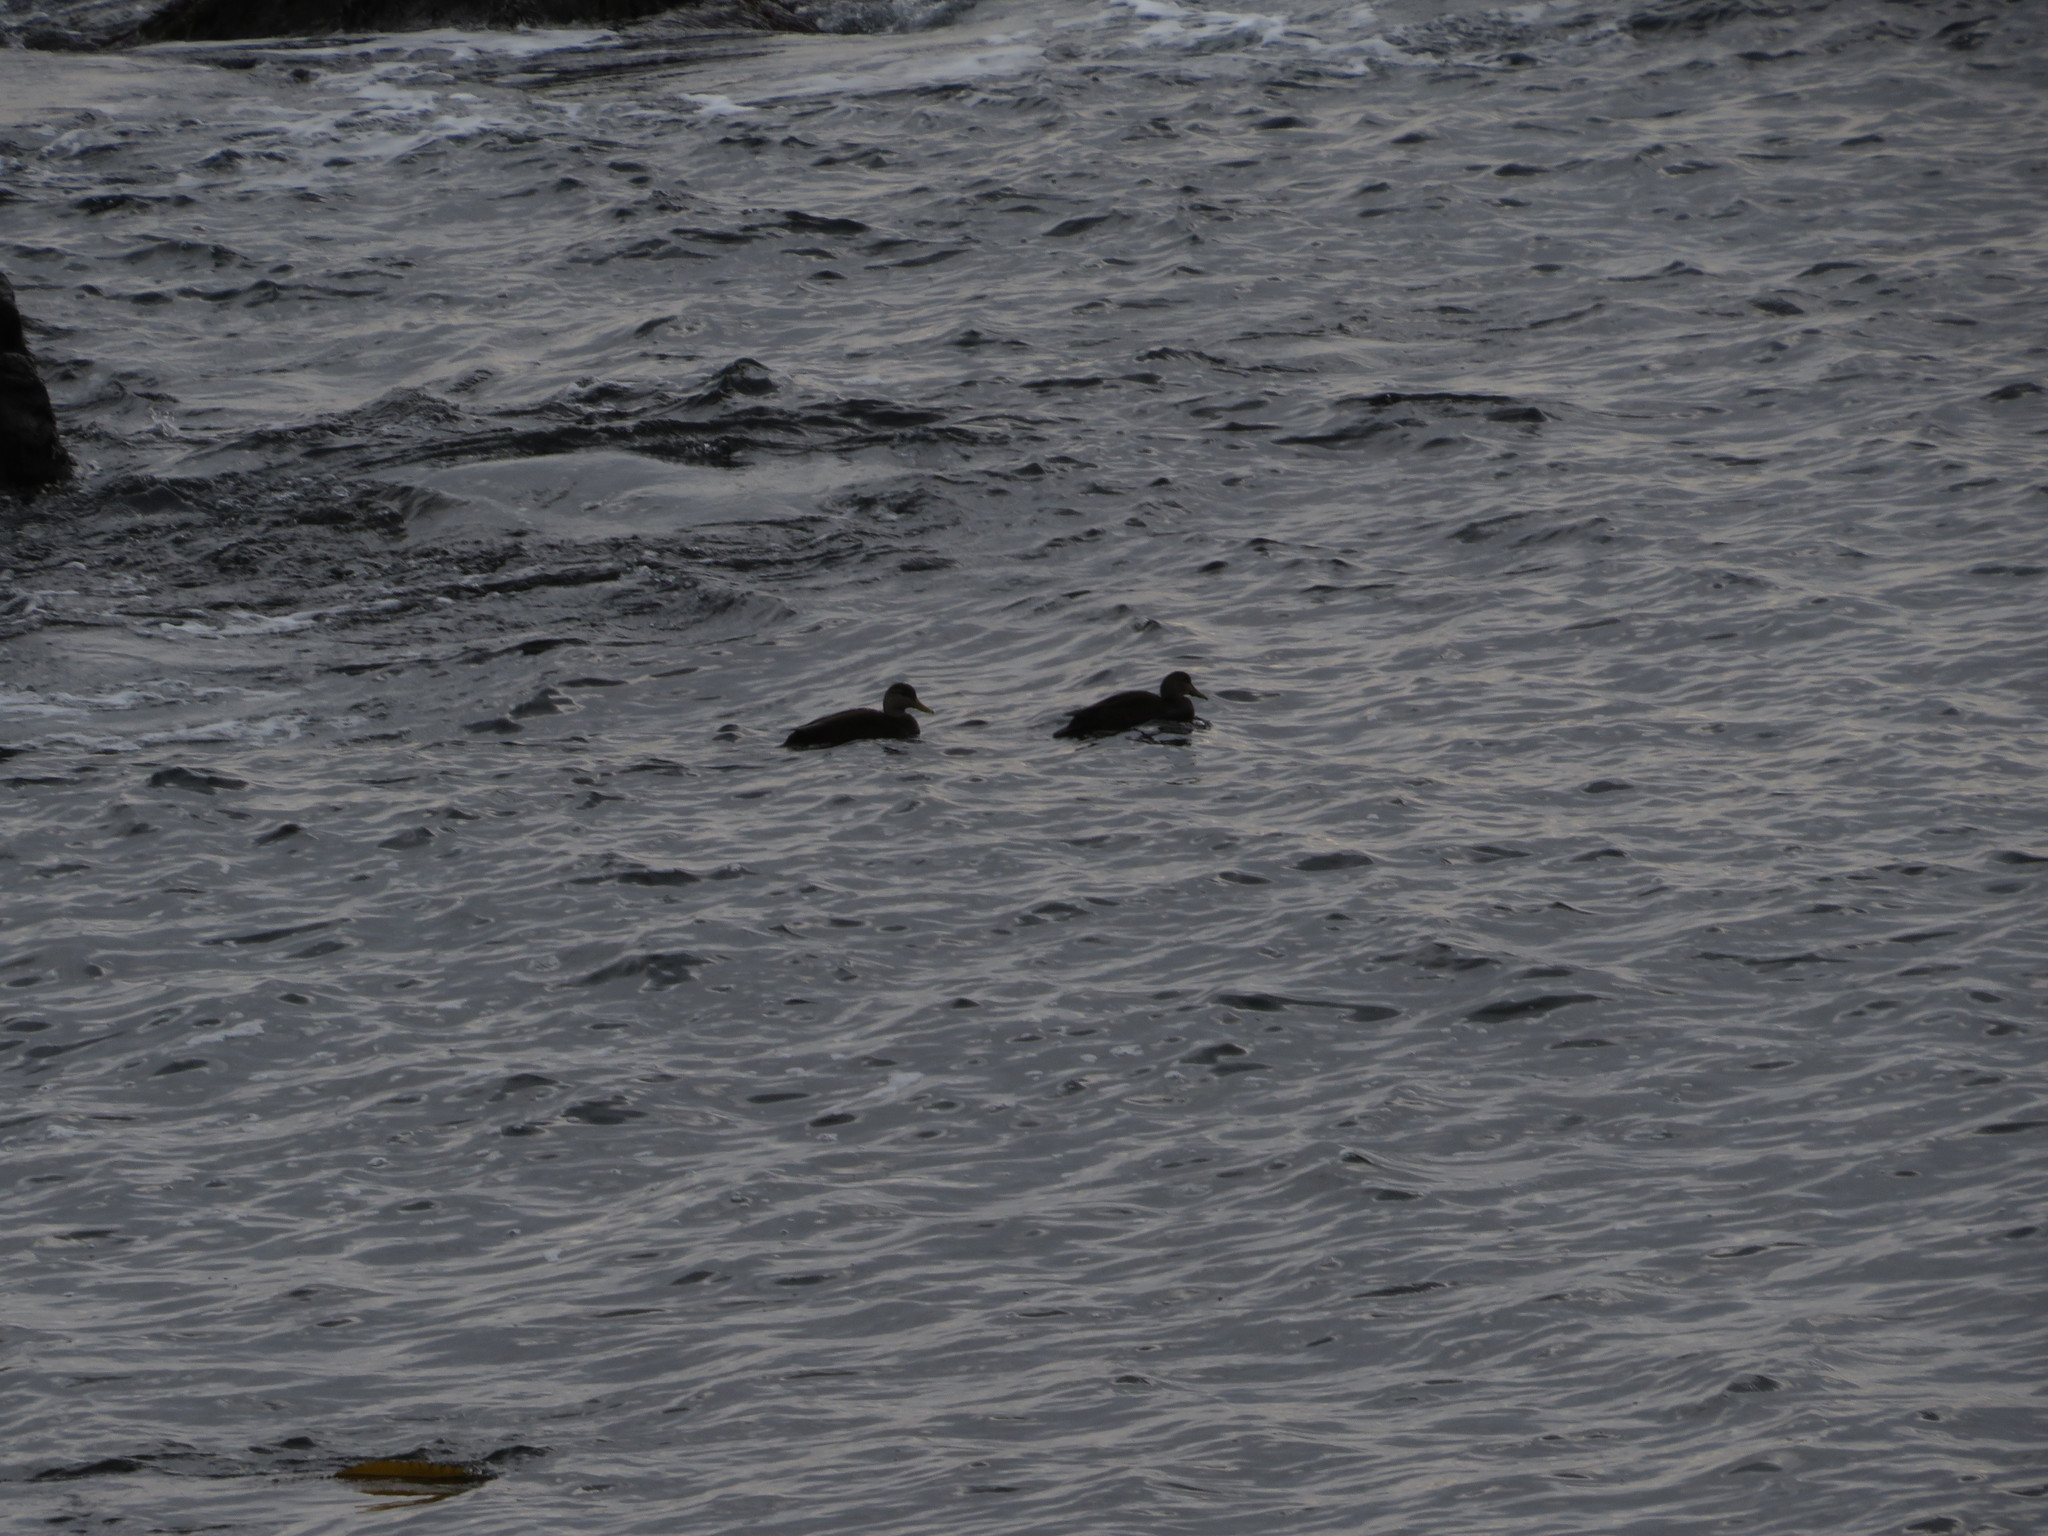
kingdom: Animalia
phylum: Chordata
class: Aves
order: Anseriformes
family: Anatidae
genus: Anas
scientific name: Anas rubripes
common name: American black duck
